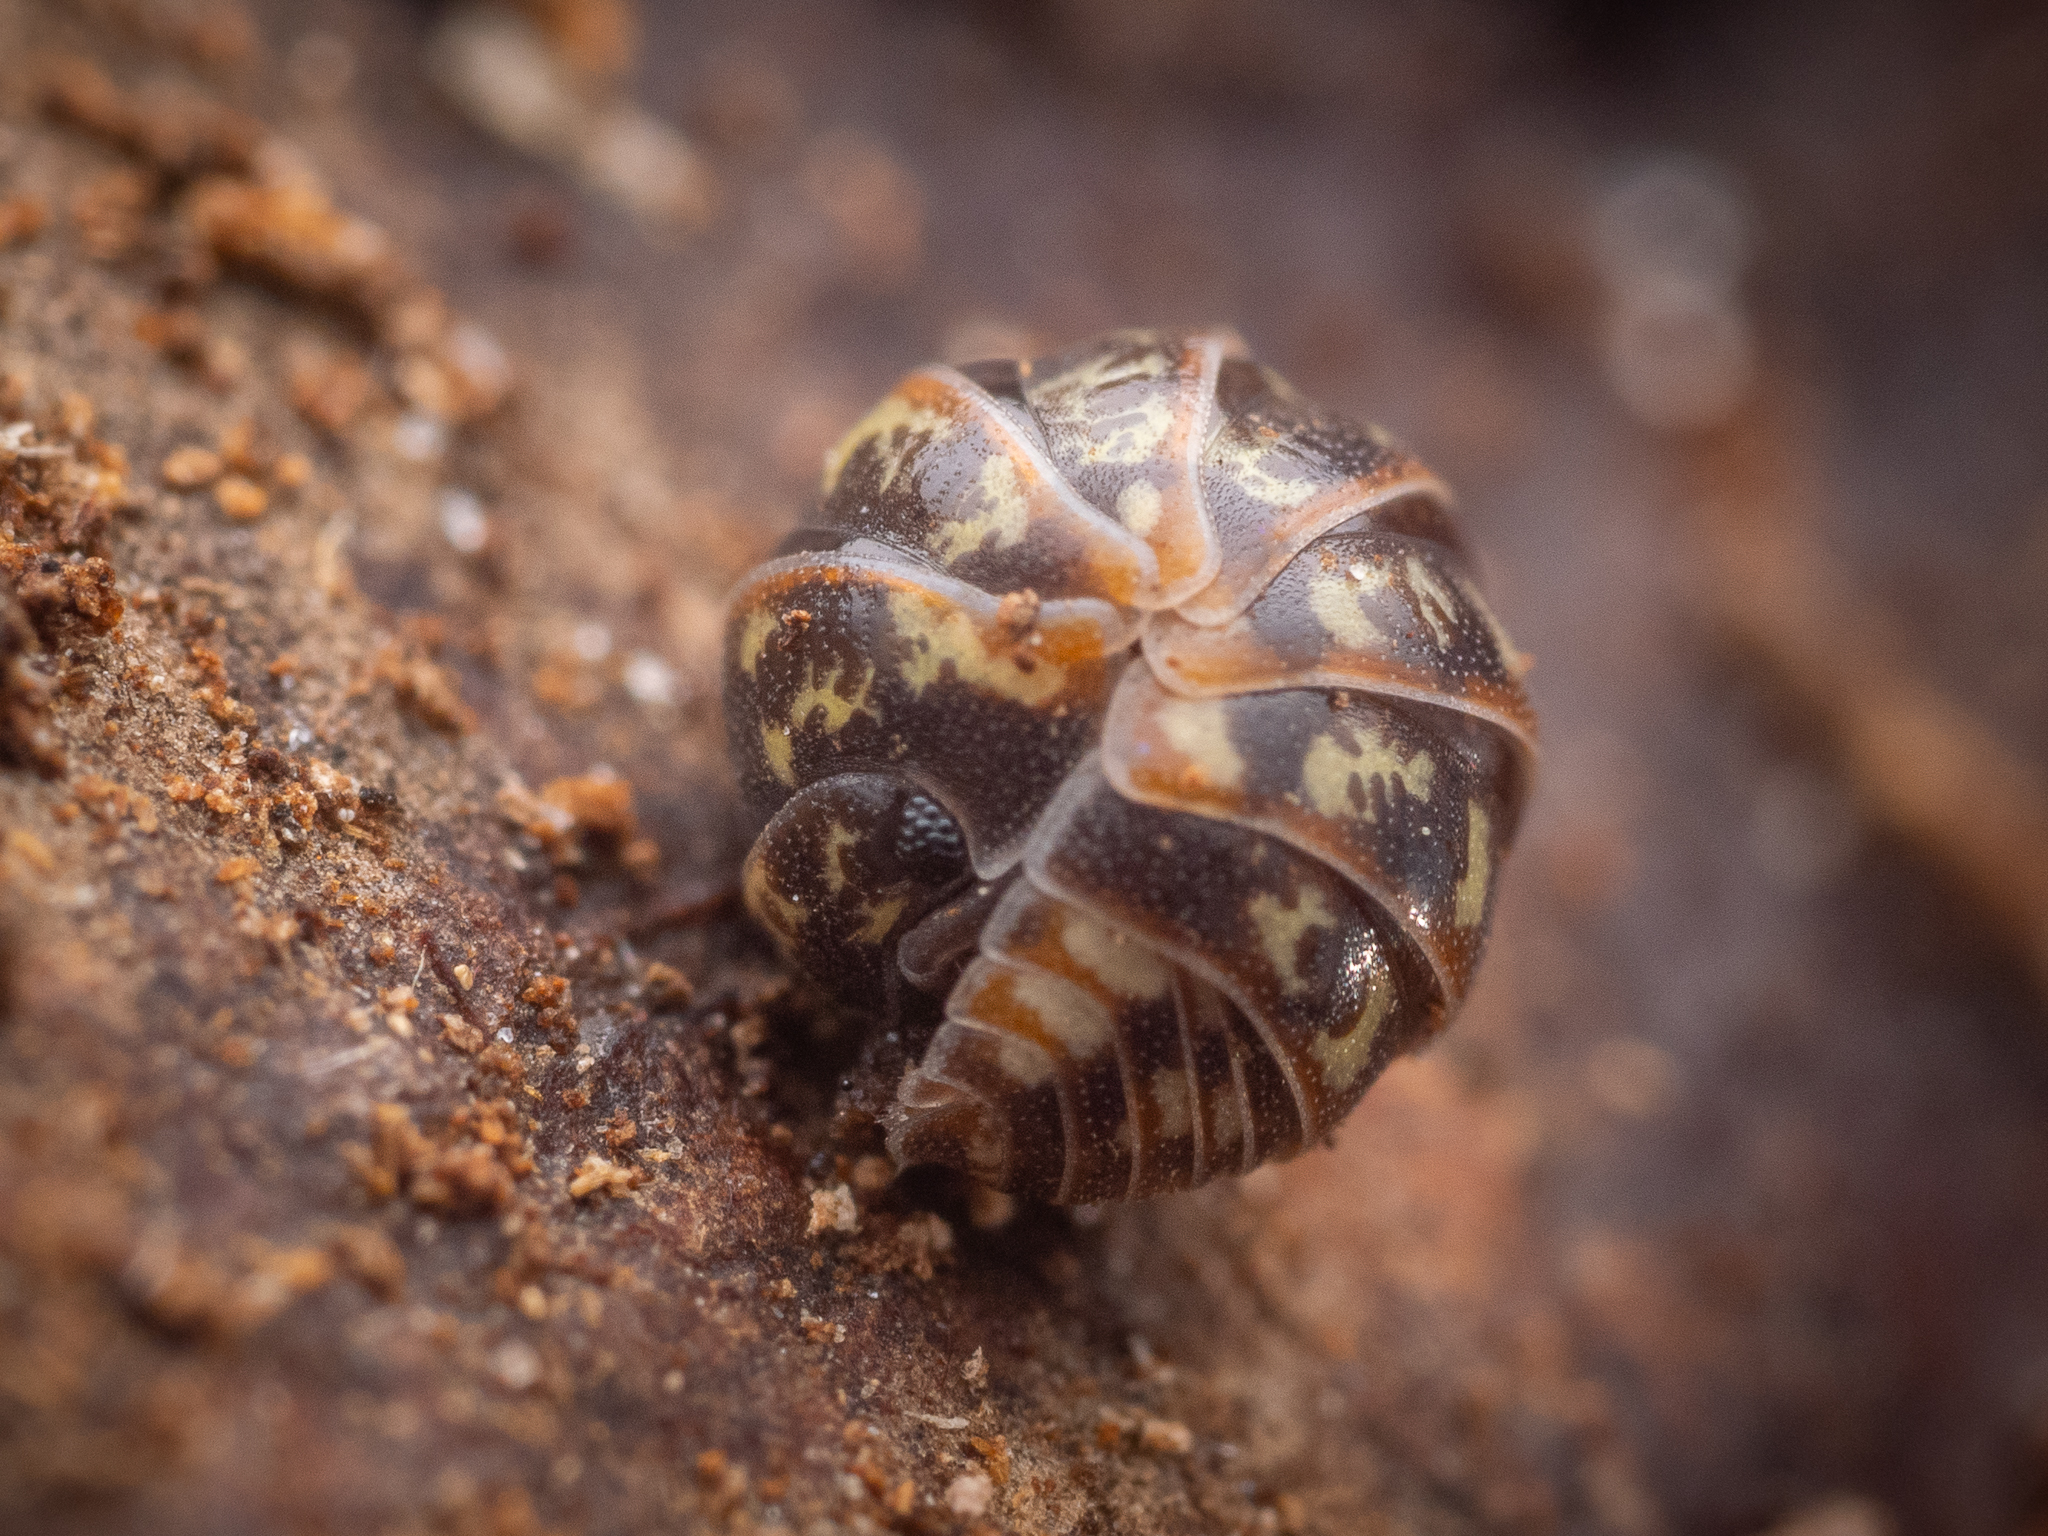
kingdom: Animalia
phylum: Arthropoda
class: Malacostraca
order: Isopoda
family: Armadillidiidae
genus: Armadillidium
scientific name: Armadillidium pulchellum
